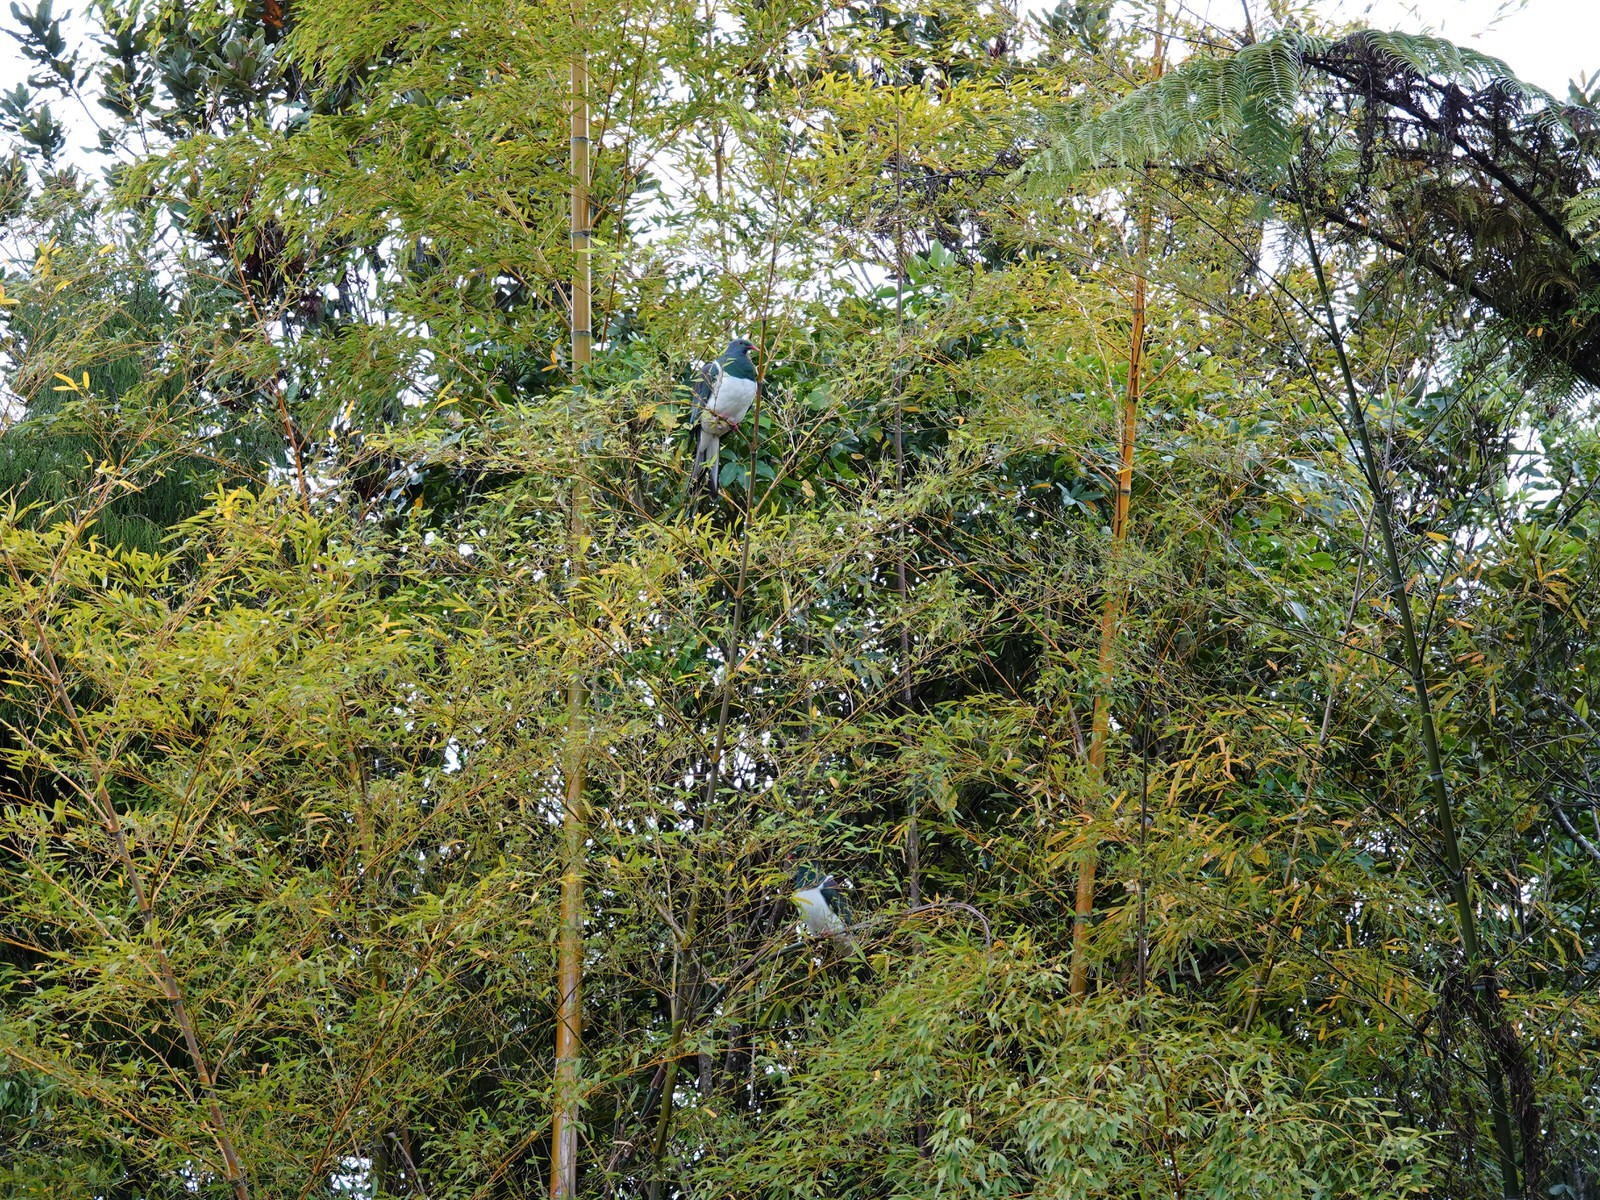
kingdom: Animalia
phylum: Chordata
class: Aves
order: Columbiformes
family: Columbidae
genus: Hemiphaga
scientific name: Hemiphaga novaeseelandiae
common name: New zealand pigeon
